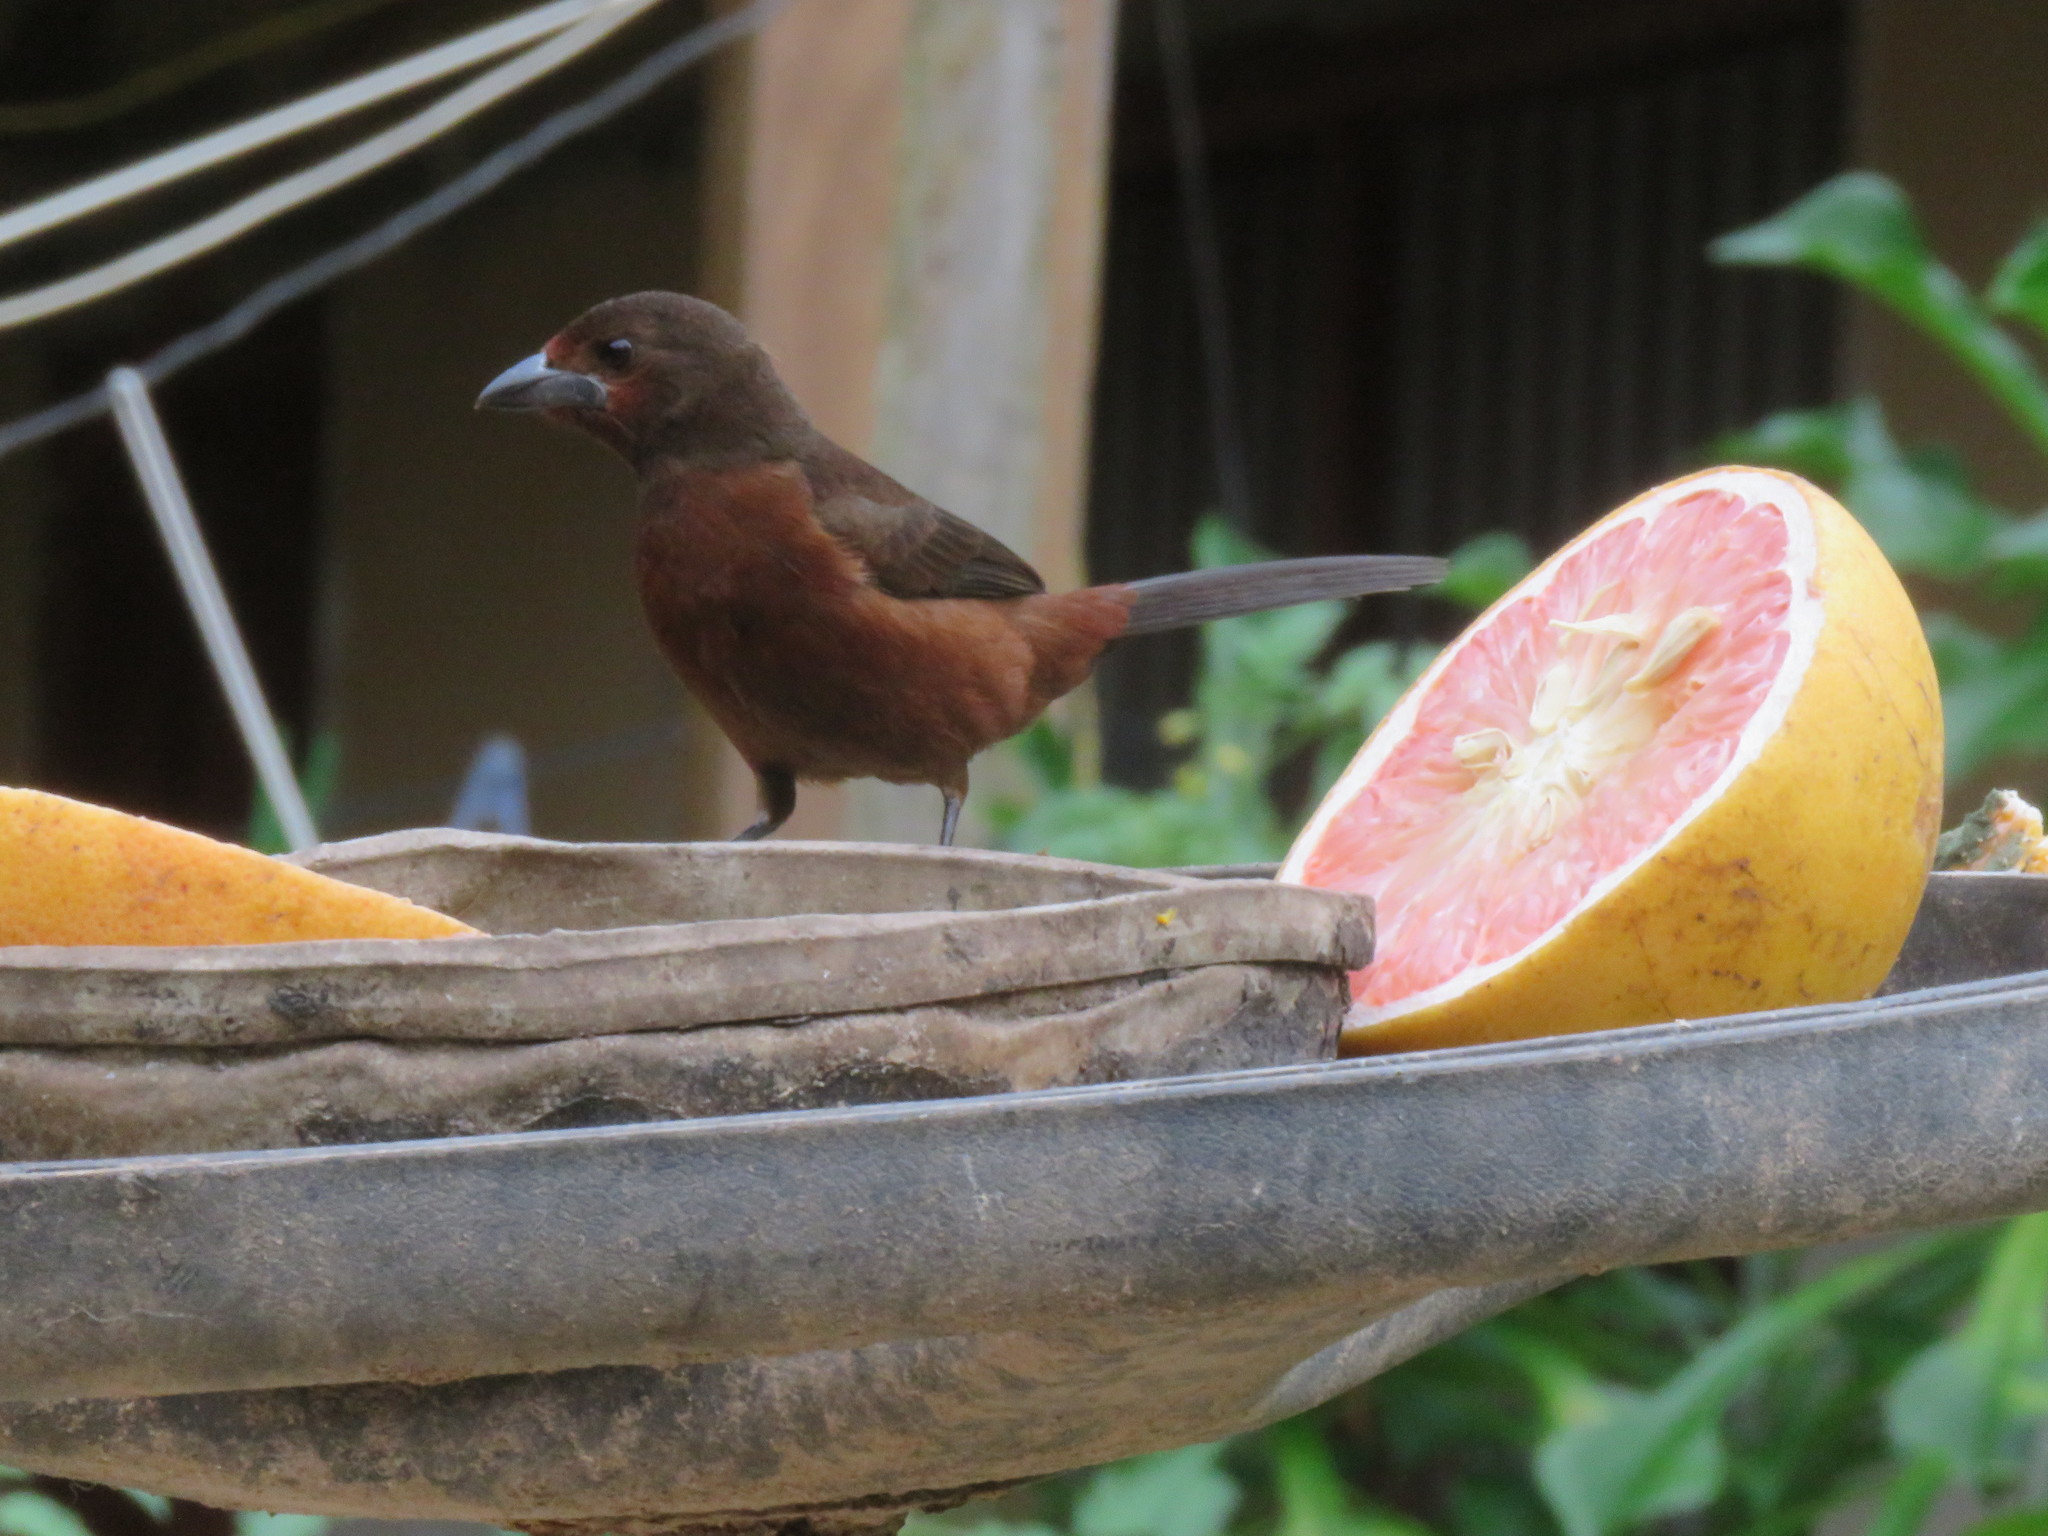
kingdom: Animalia
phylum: Chordata
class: Aves
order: Passeriformes
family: Thraupidae
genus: Ramphocelus
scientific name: Ramphocelus carbo
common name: Silver-beaked tanager
